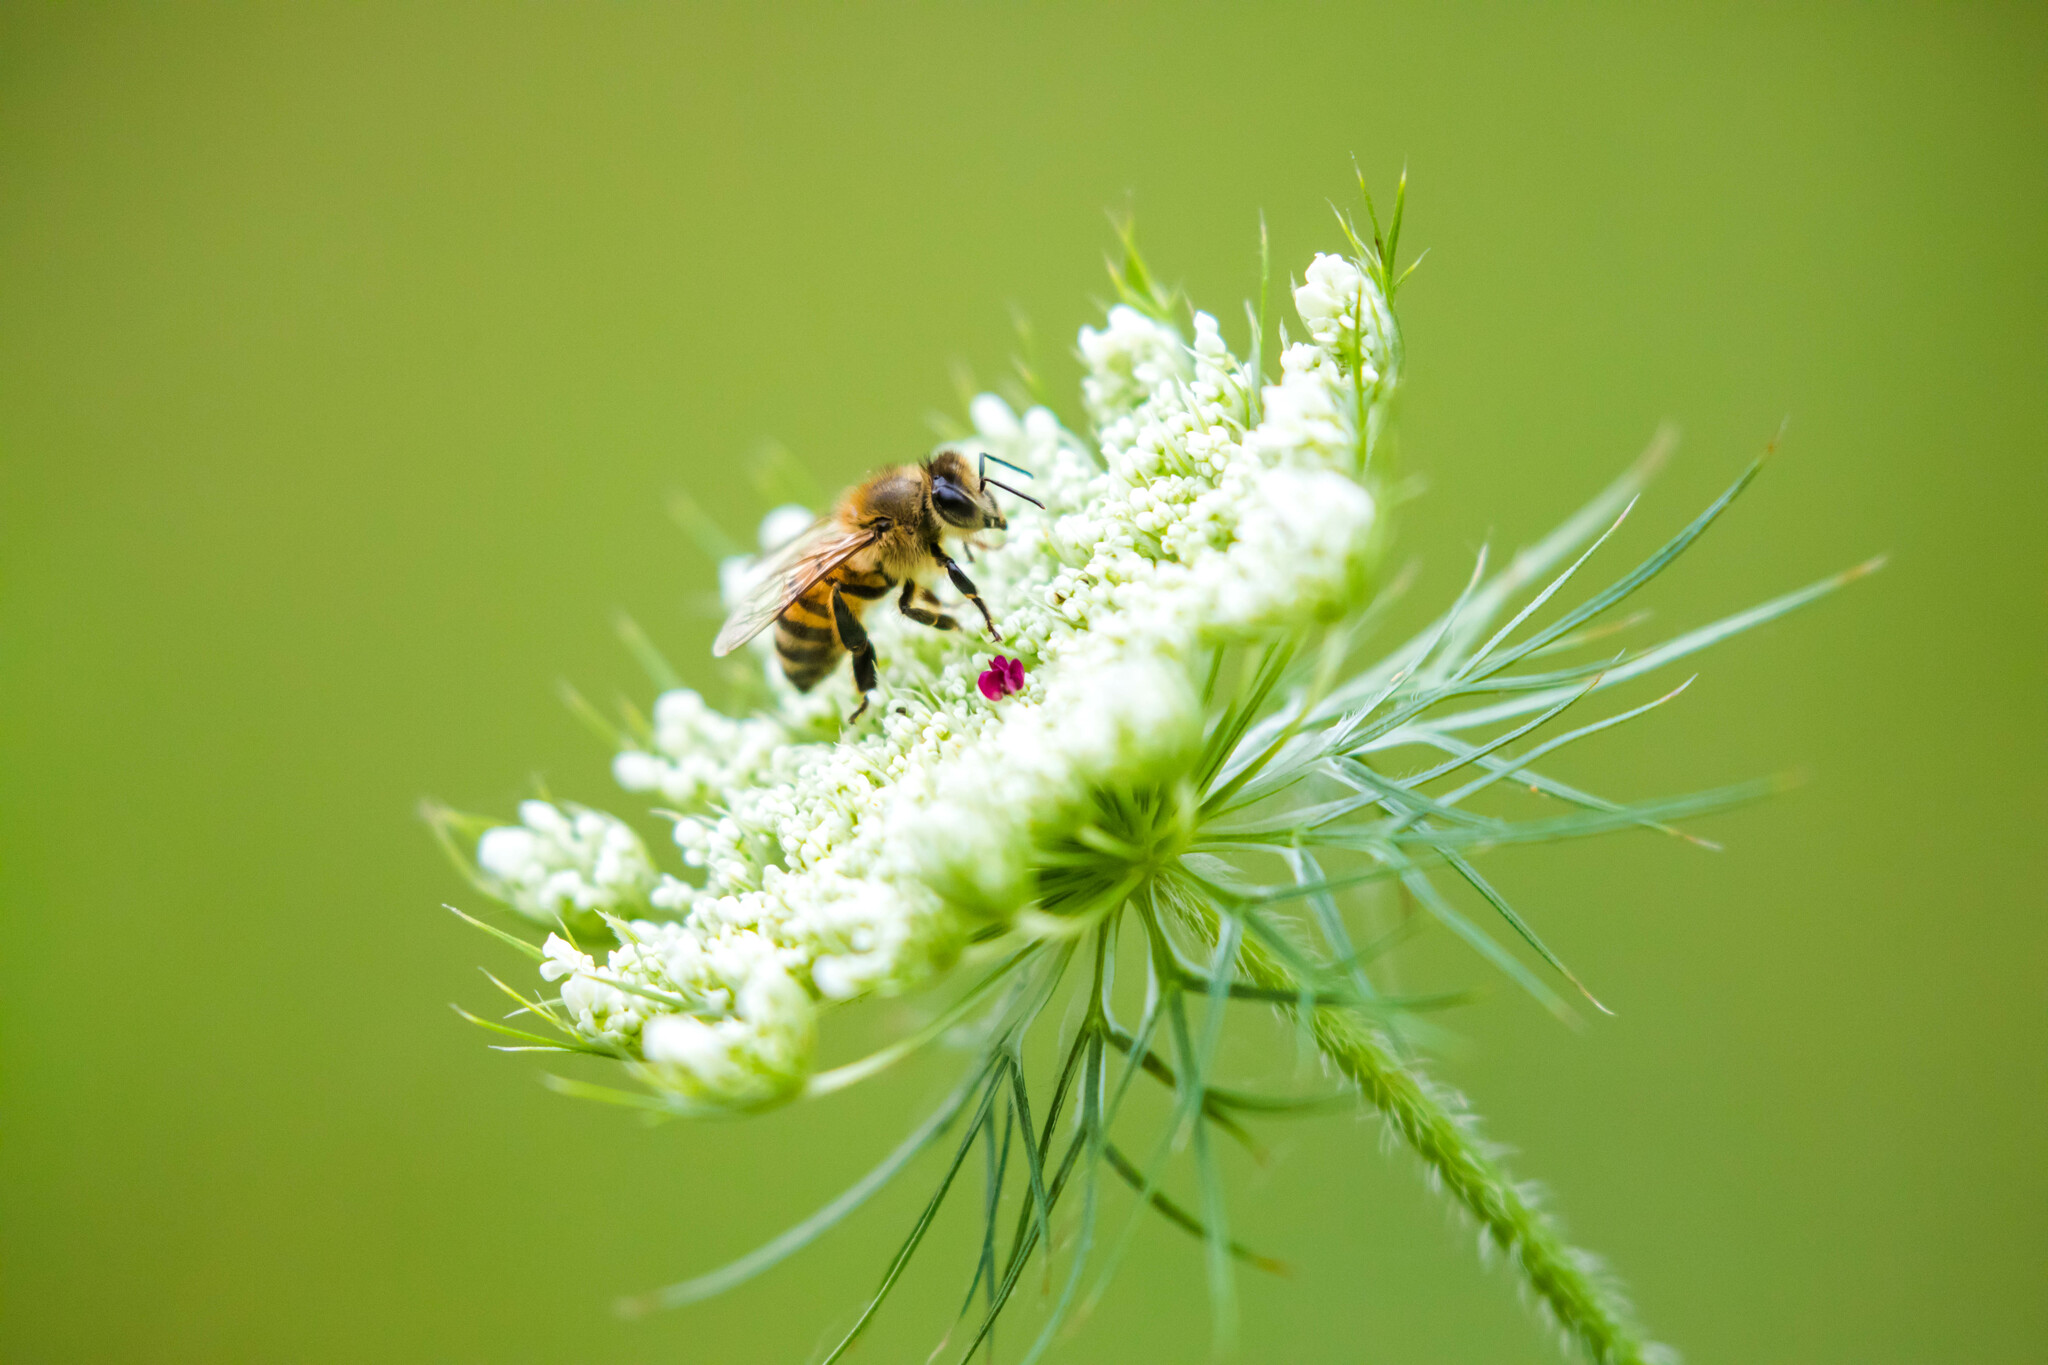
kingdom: Animalia
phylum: Arthropoda
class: Insecta
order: Hymenoptera
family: Apidae
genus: Apis
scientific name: Apis mellifera
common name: Honey bee
